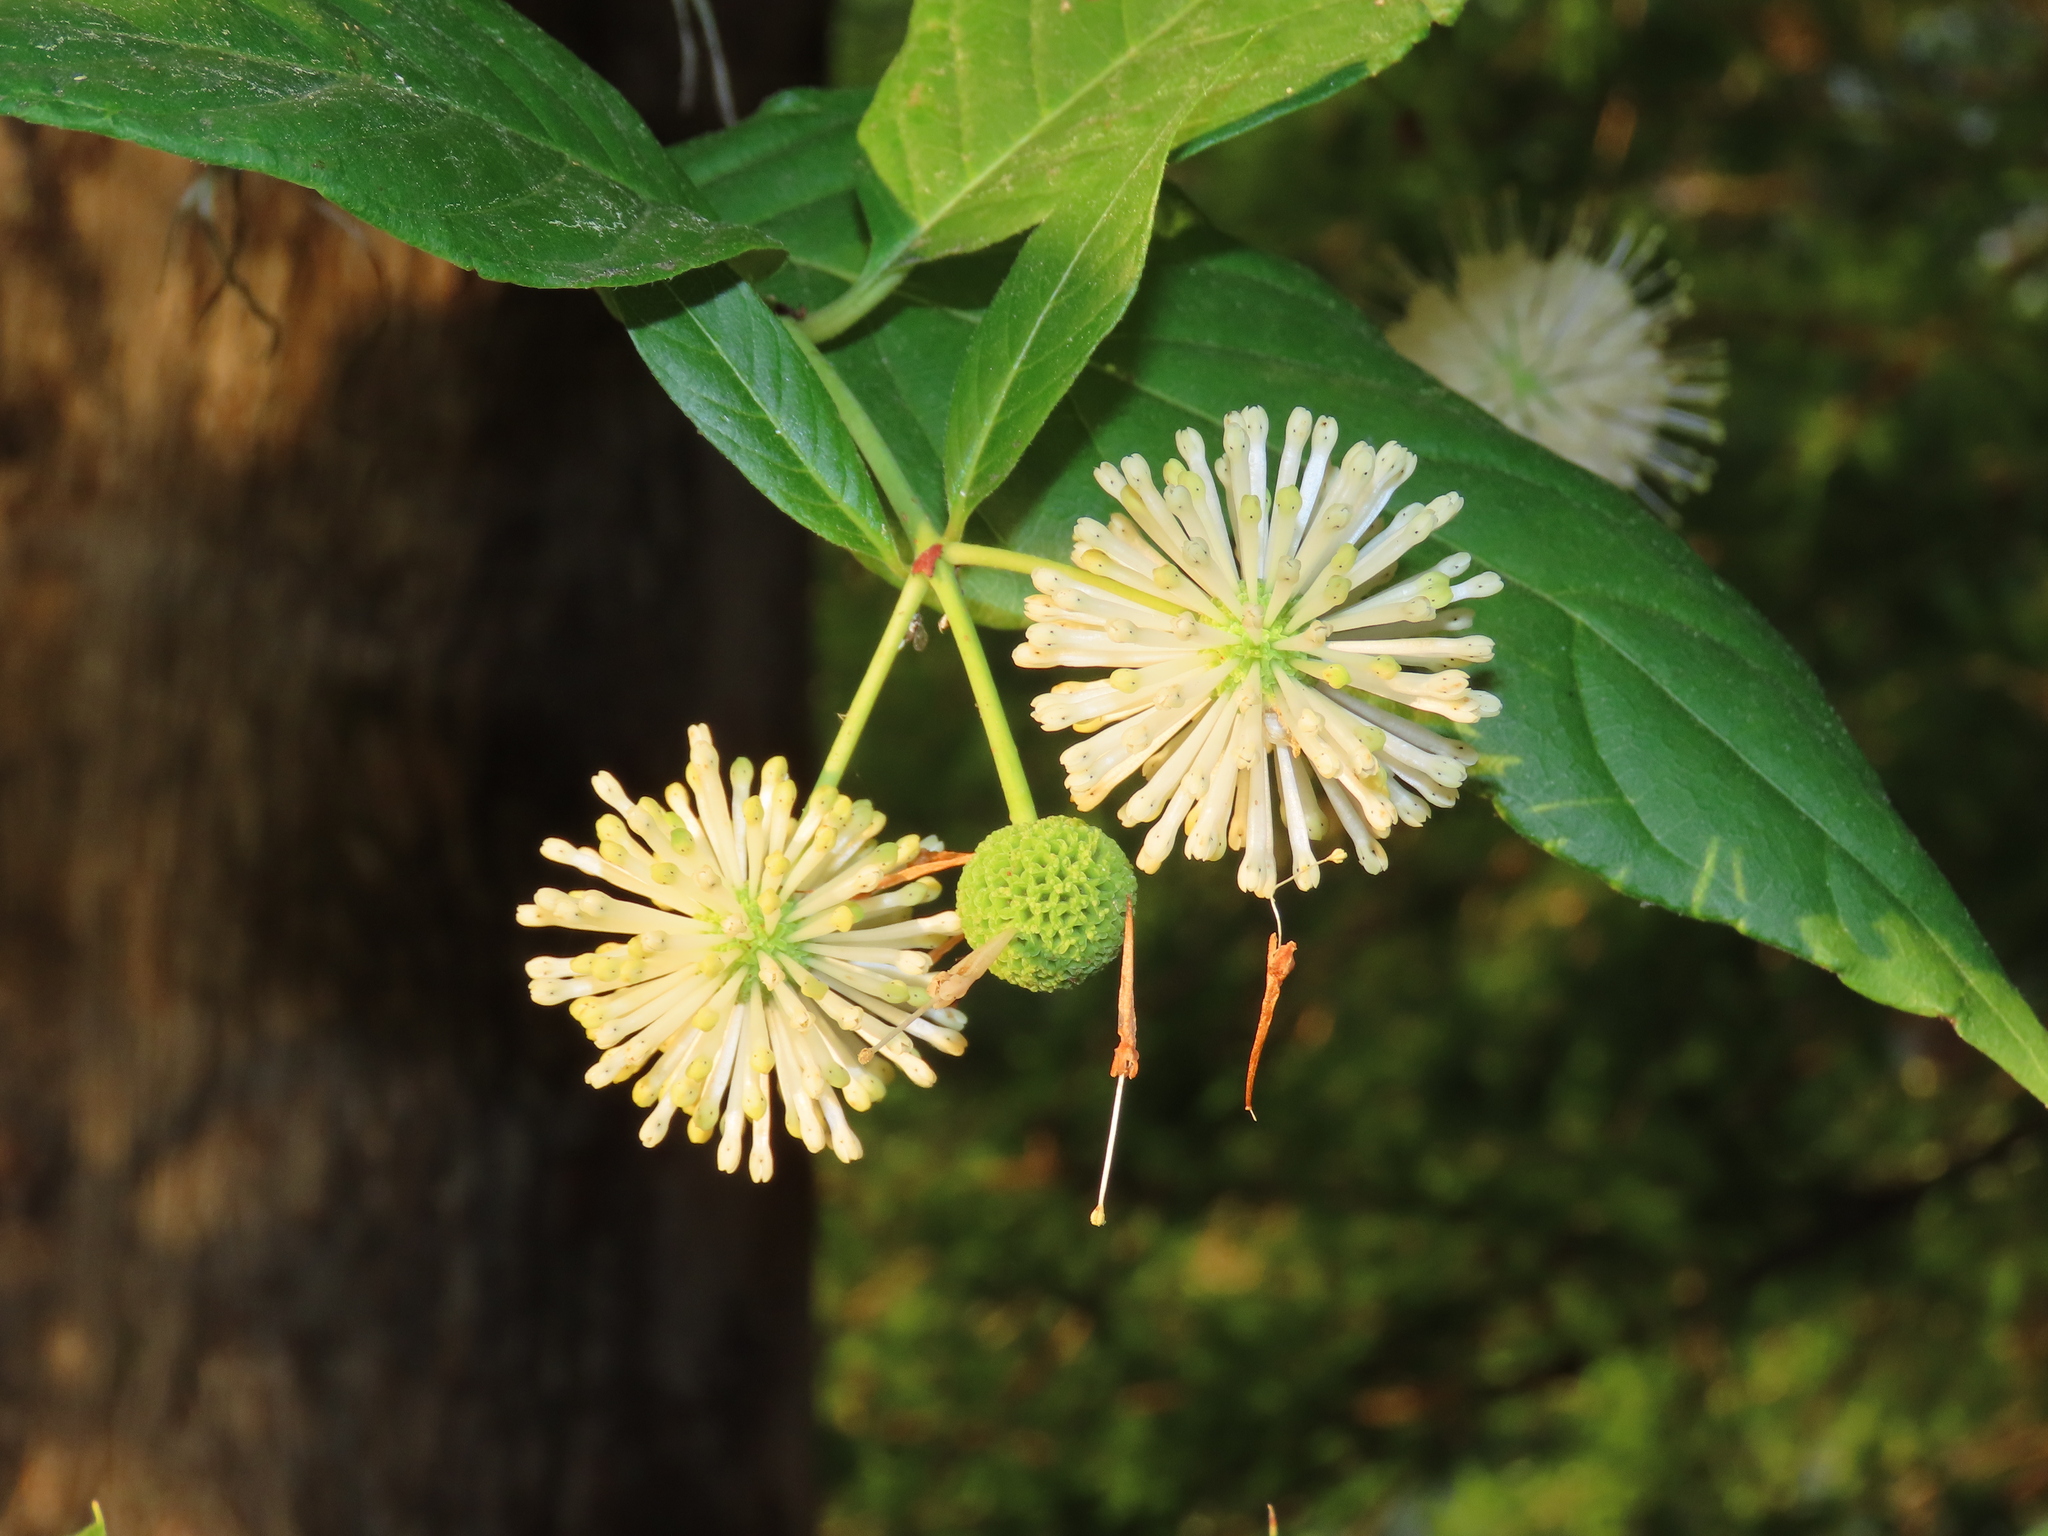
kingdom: Plantae
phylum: Tracheophyta
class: Magnoliopsida
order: Gentianales
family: Rubiaceae
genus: Cephalanthus
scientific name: Cephalanthus occidentalis
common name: Button-willow
